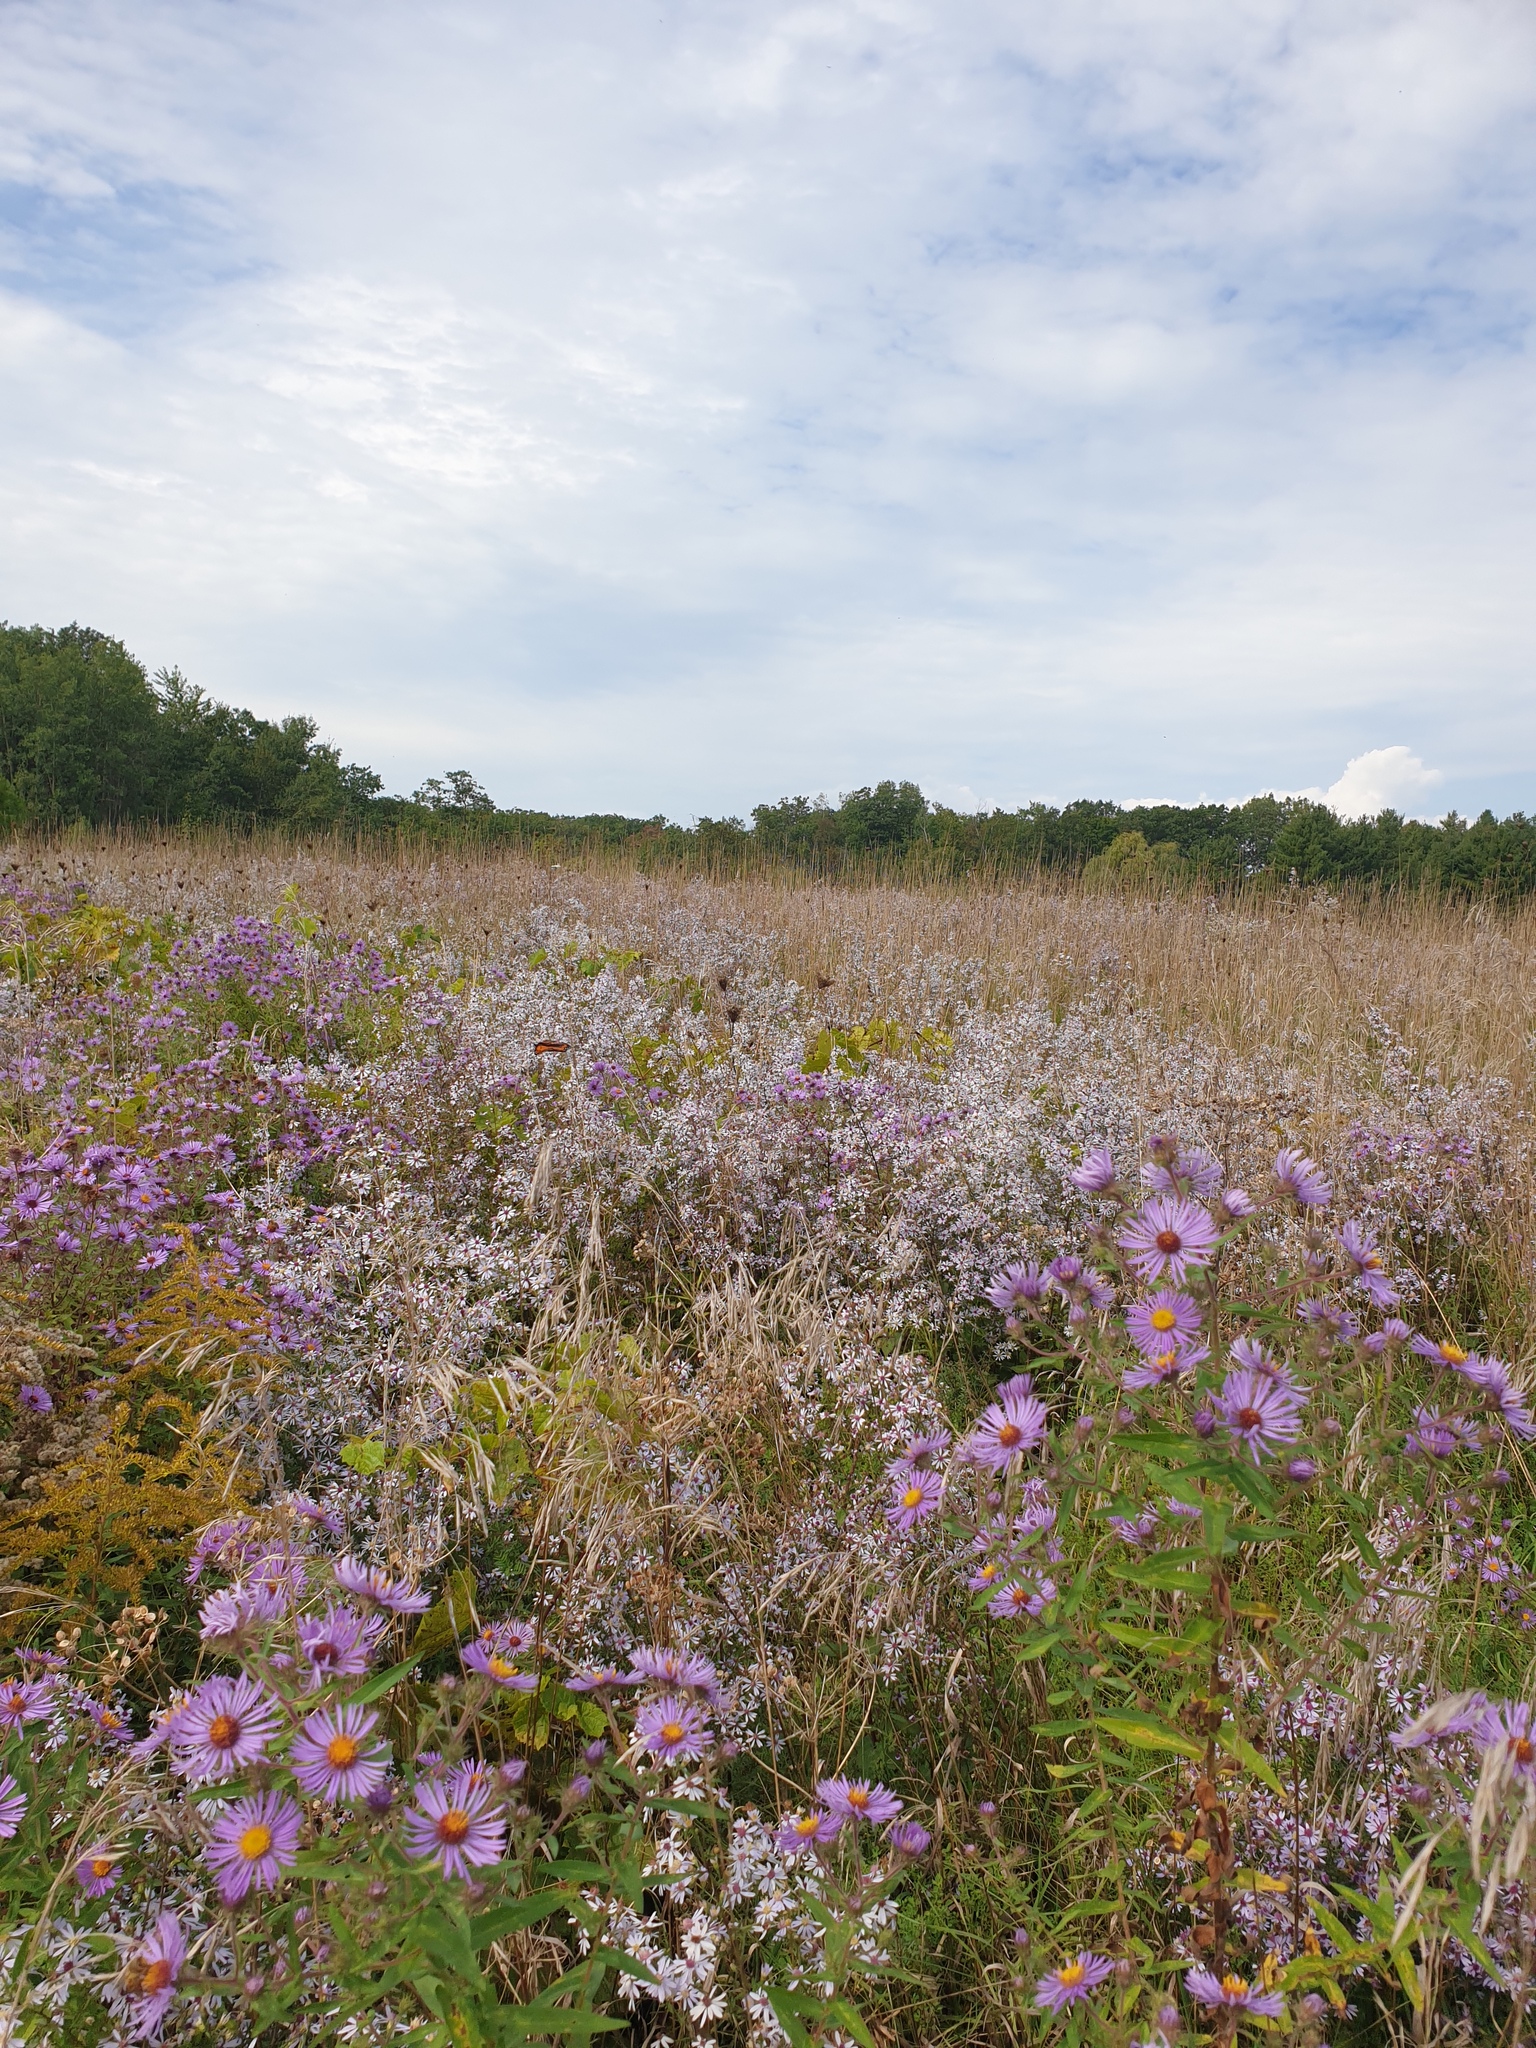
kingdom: Plantae
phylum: Tracheophyta
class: Magnoliopsida
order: Asterales
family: Asteraceae
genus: Symphyotrichum
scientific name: Symphyotrichum novae-angliae
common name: Michaelmas daisy
